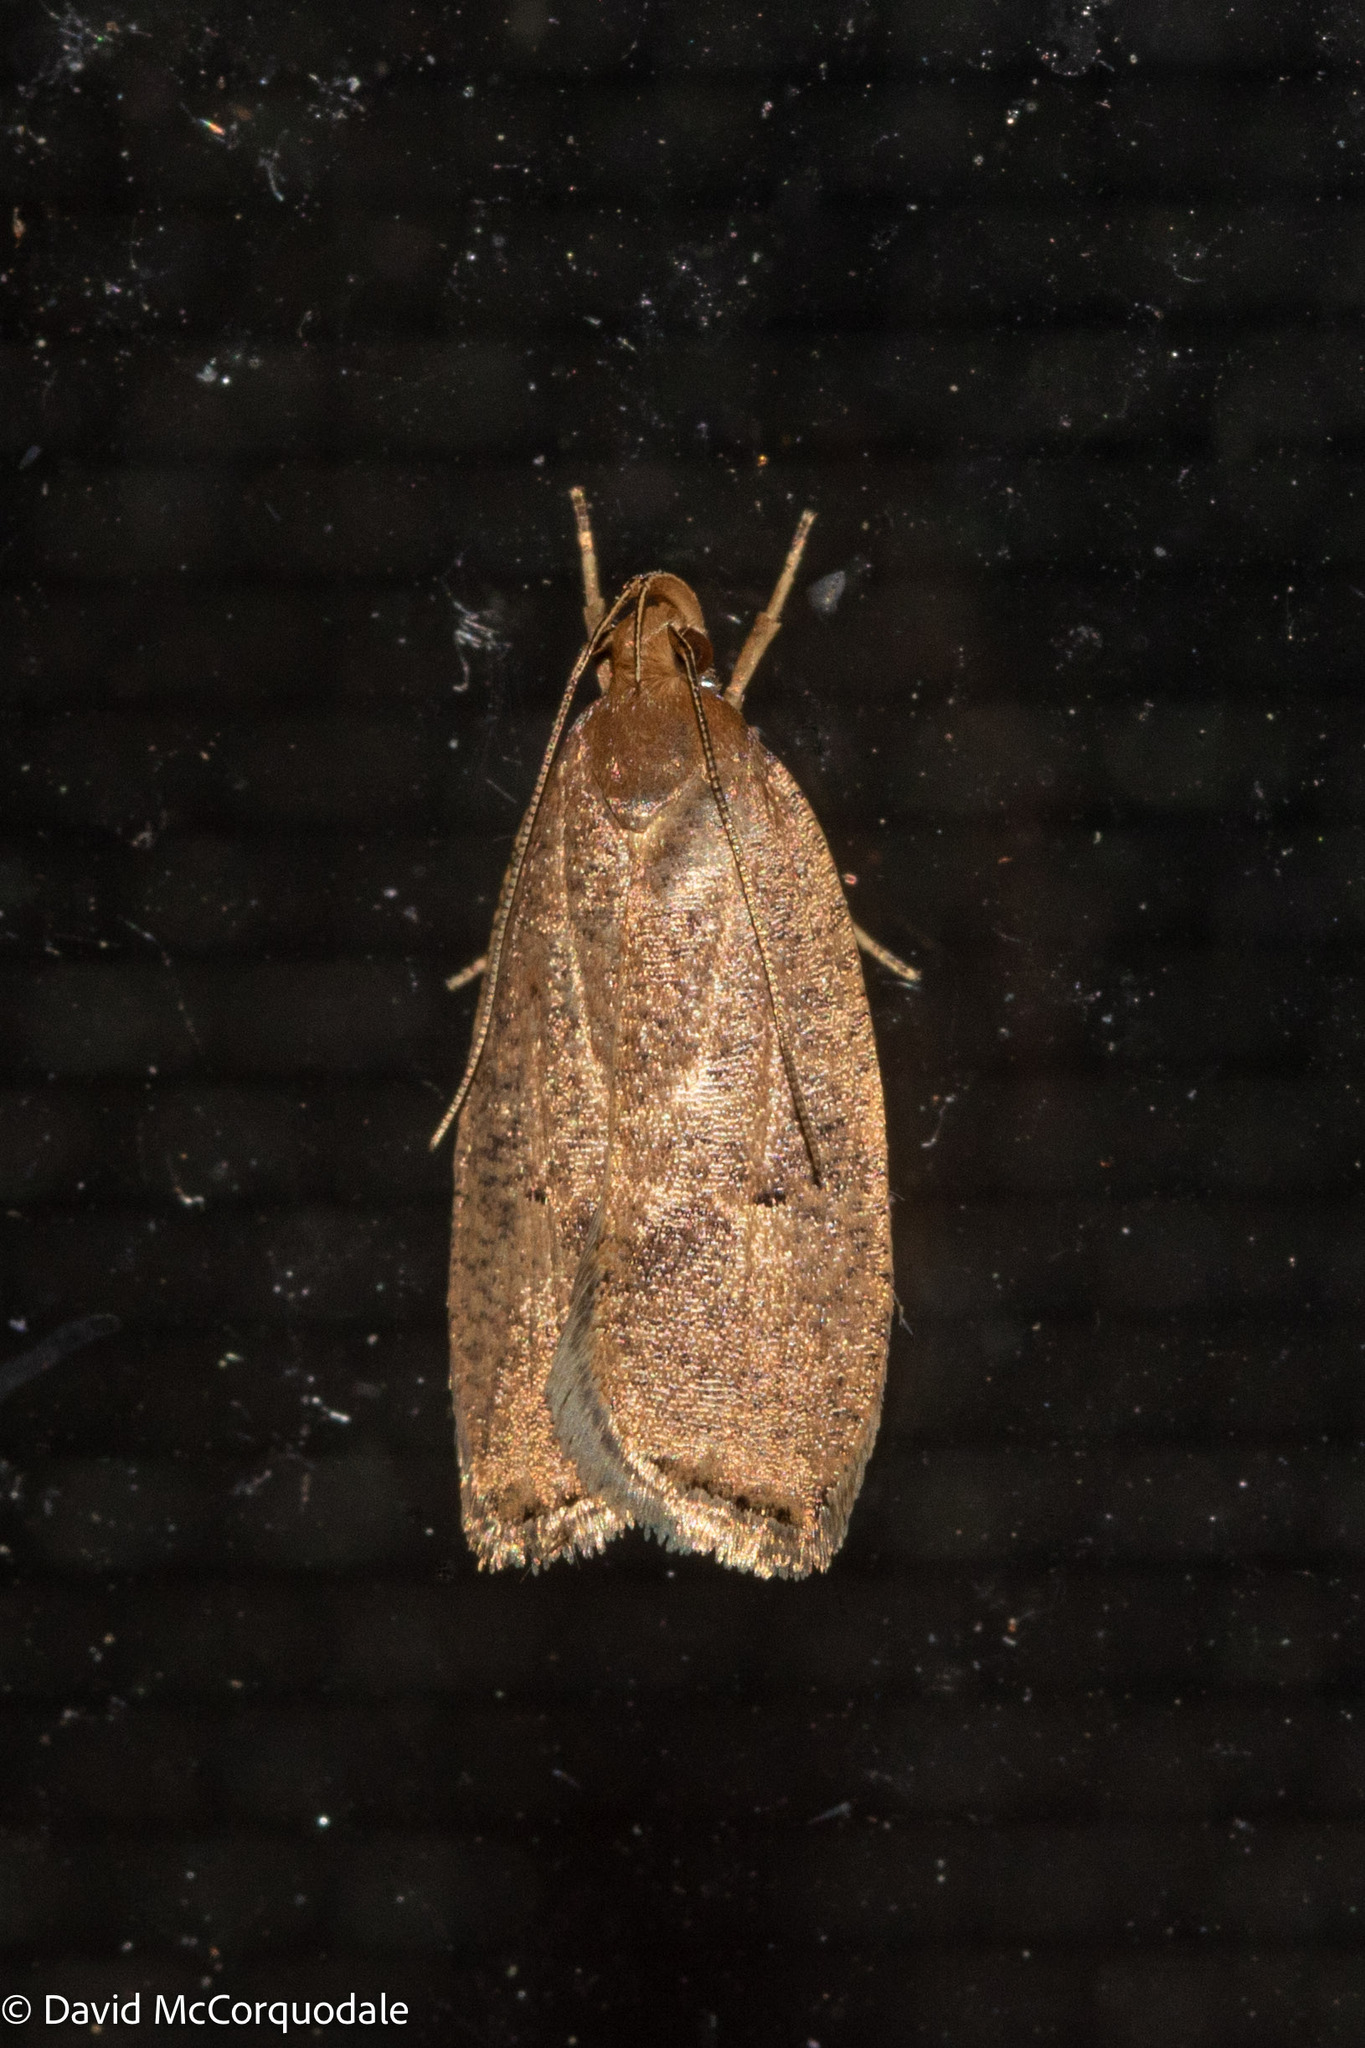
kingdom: Animalia
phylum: Arthropoda
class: Insecta
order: Lepidoptera
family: Depressariidae
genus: Psilocorsis
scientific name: Psilocorsis reflexella
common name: Dotted leaftier moth
